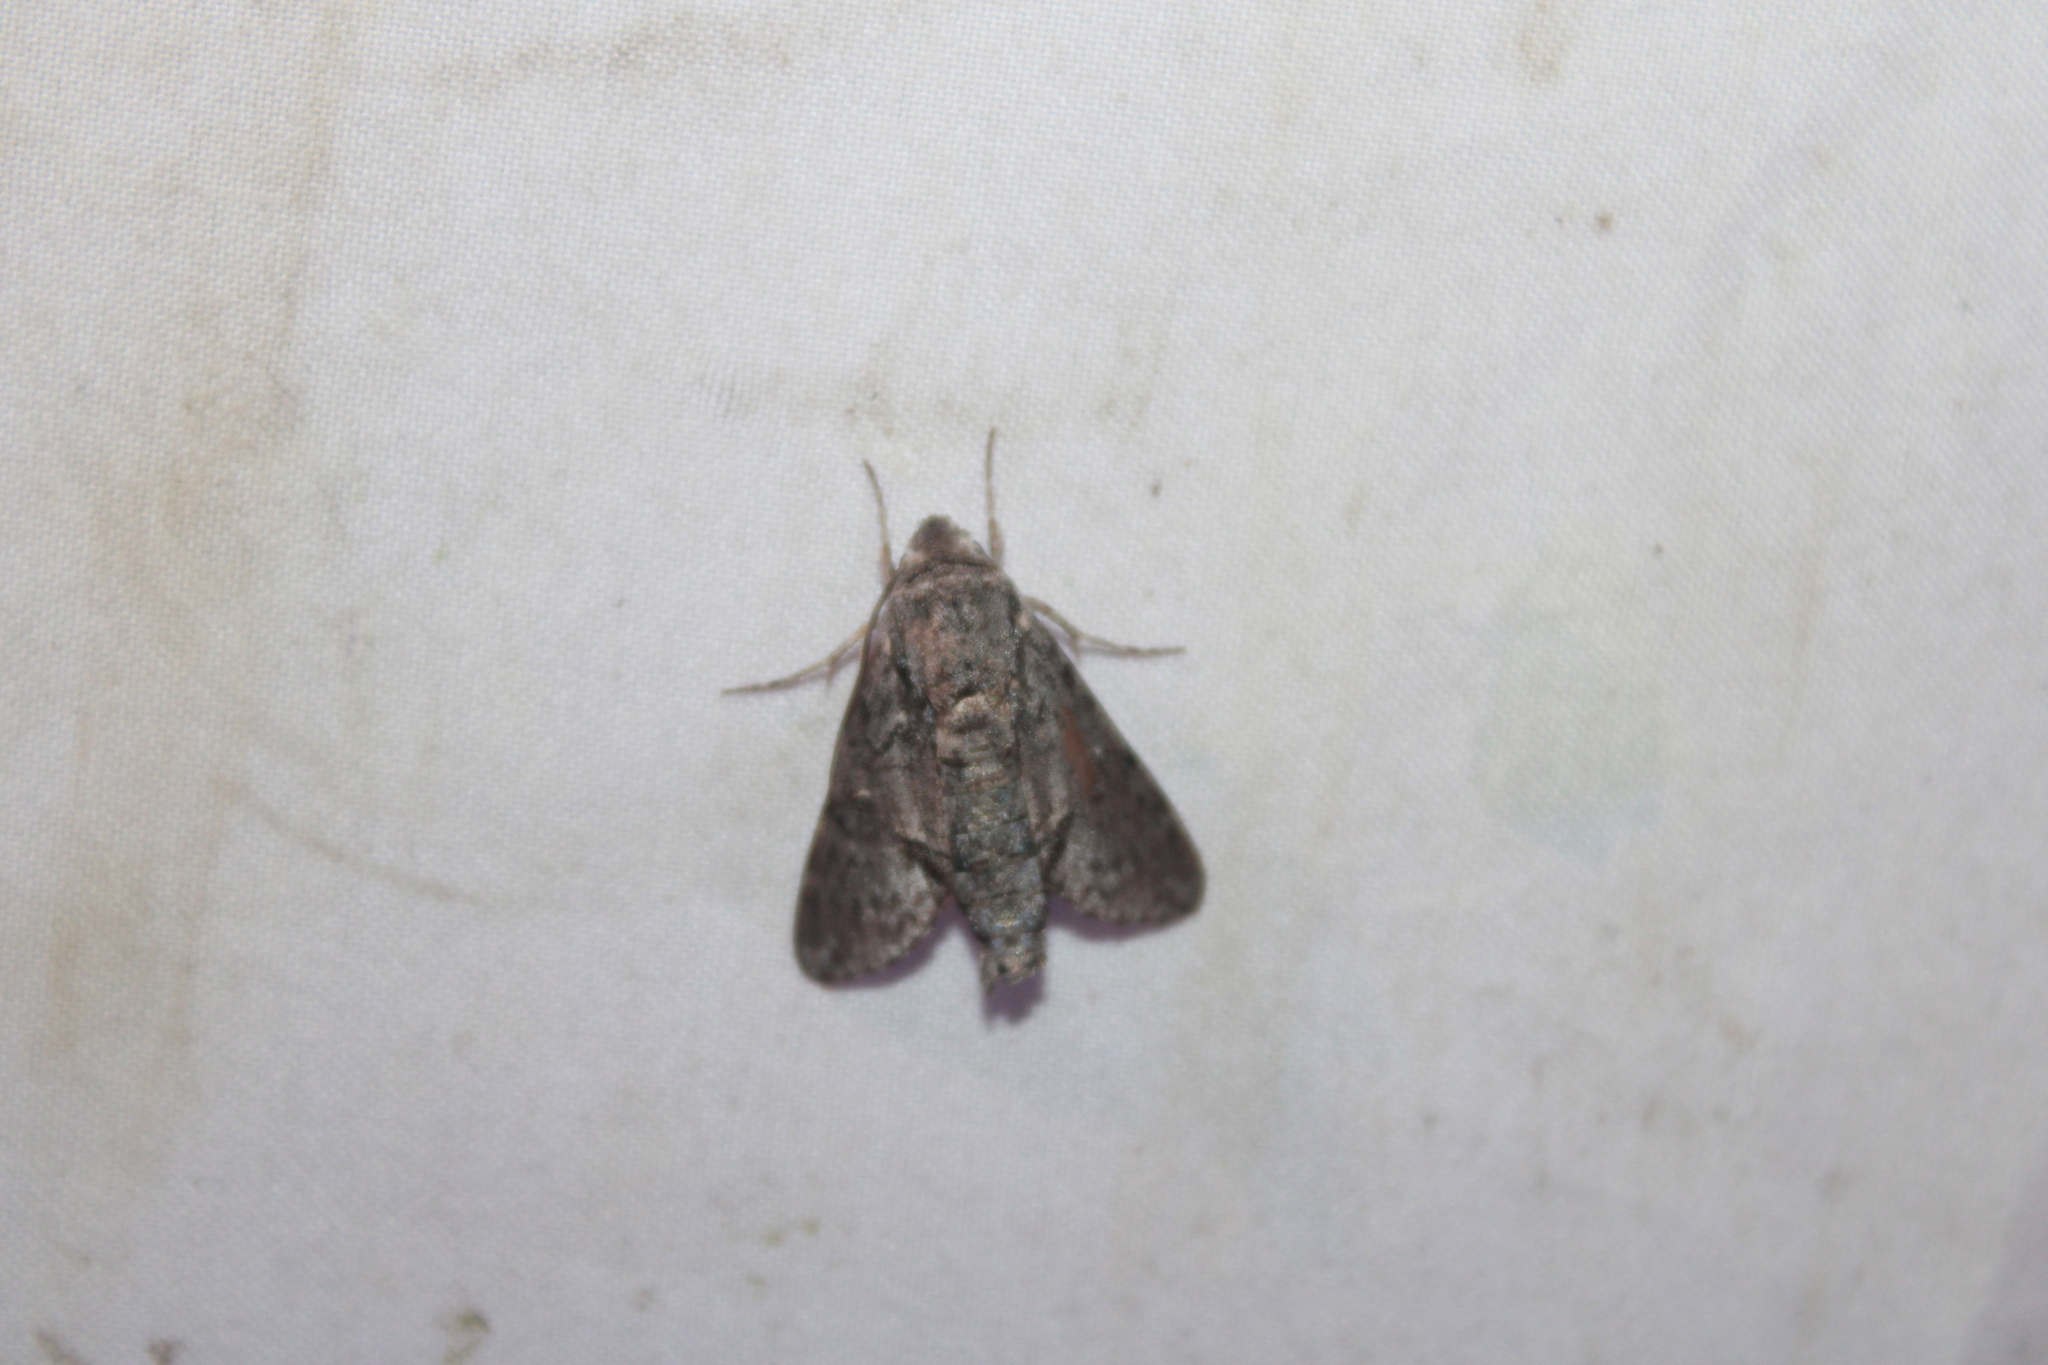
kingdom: Animalia
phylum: Arthropoda
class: Insecta
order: Lepidoptera
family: Sphingidae
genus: Cautethia
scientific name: Cautethia grotei
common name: Grote's sphinx
